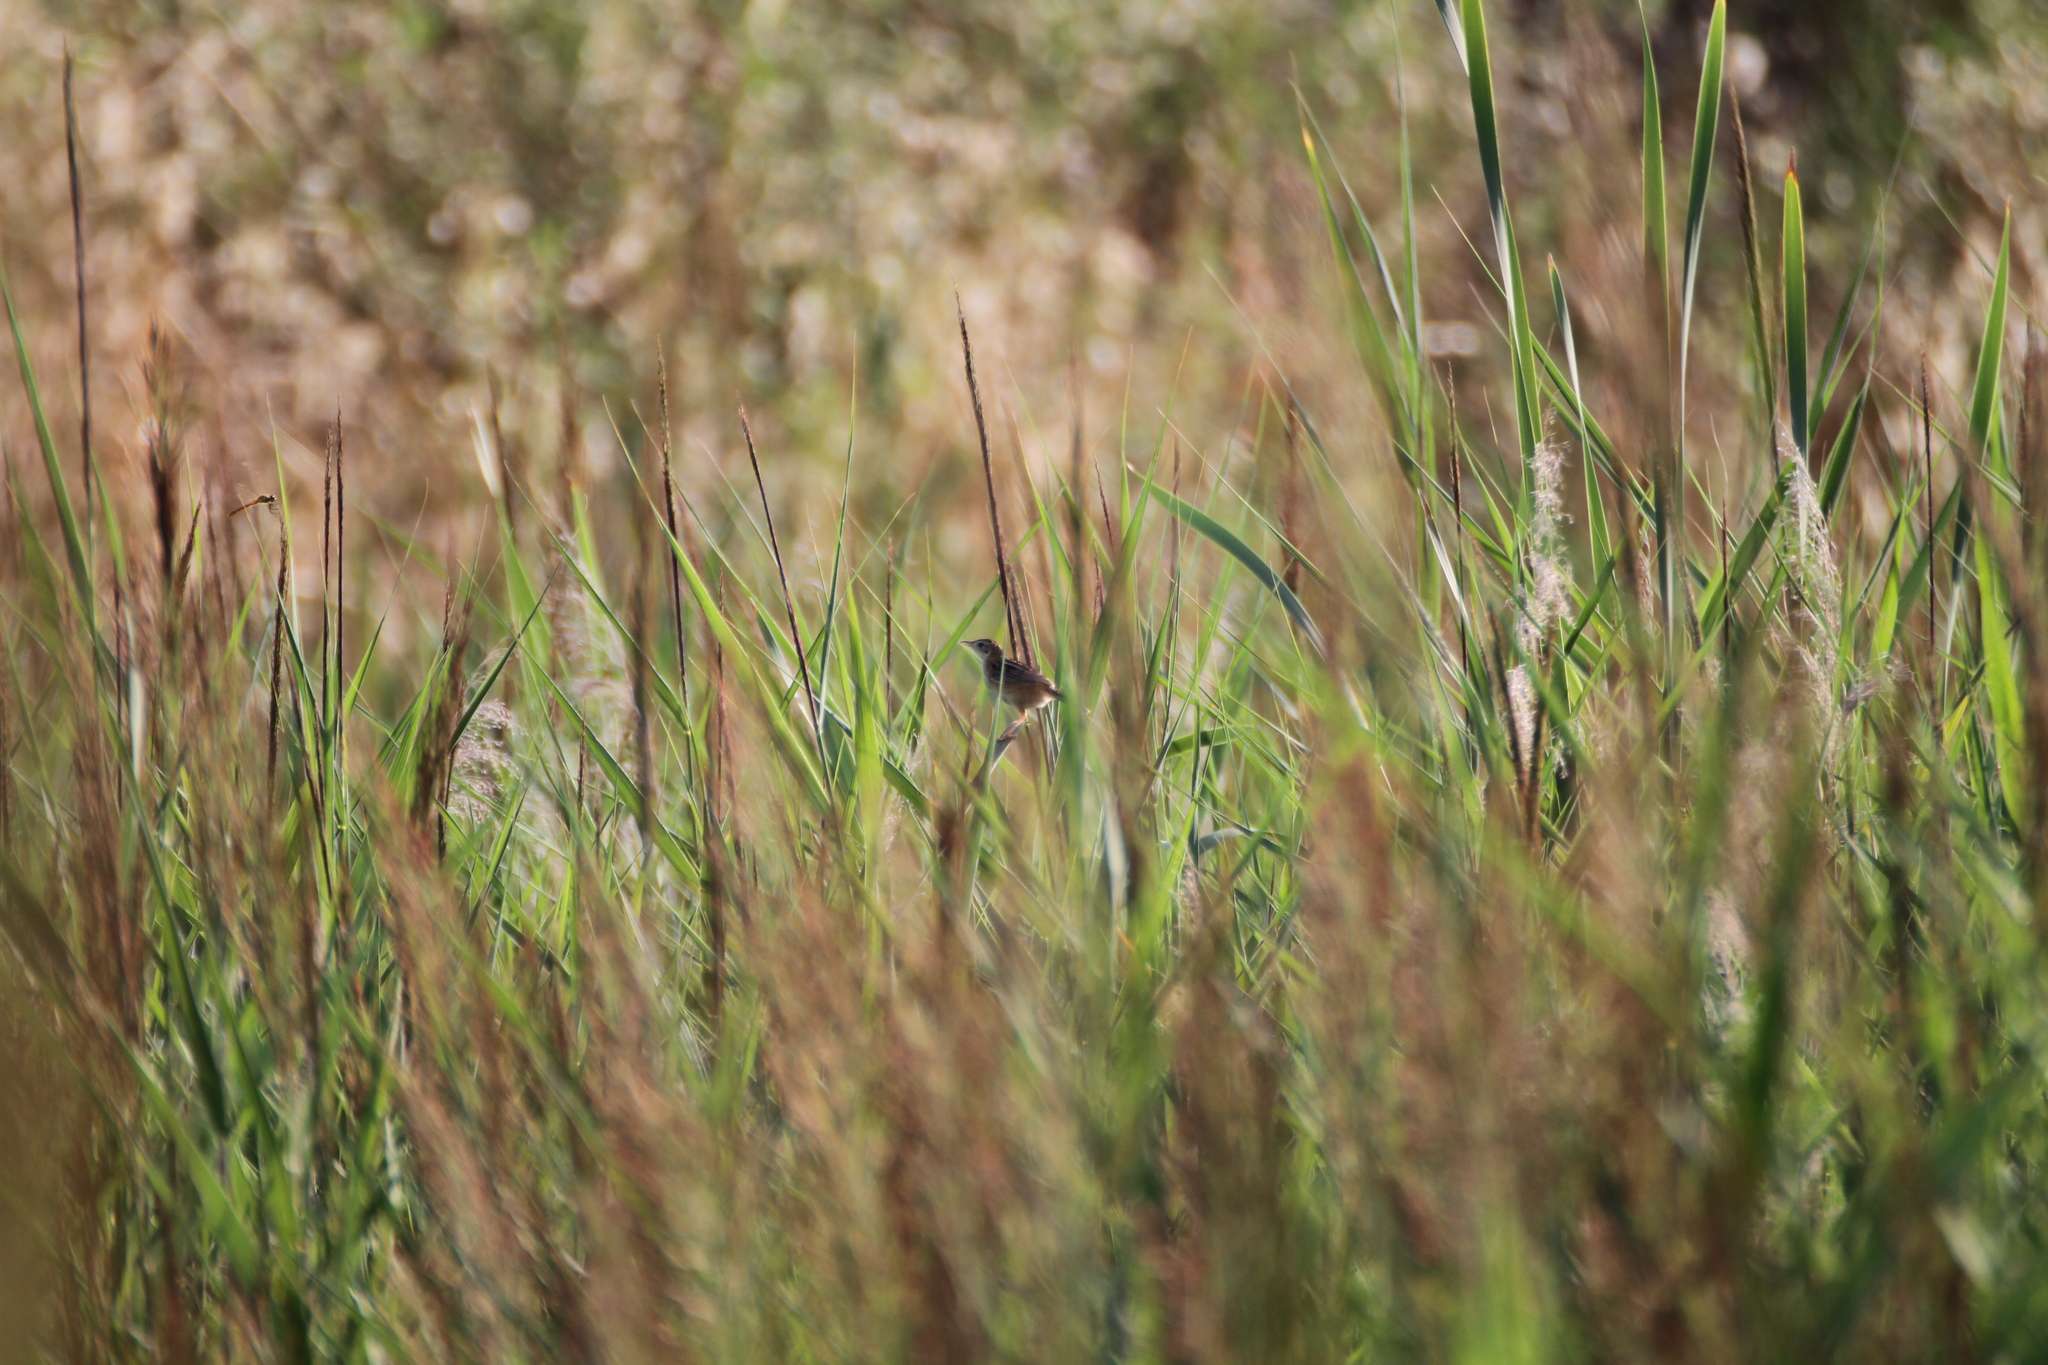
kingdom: Animalia
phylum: Chordata
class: Aves
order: Passeriformes
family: Cisticolidae
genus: Cisticola
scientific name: Cisticola juncidis
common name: Zitting cisticola
